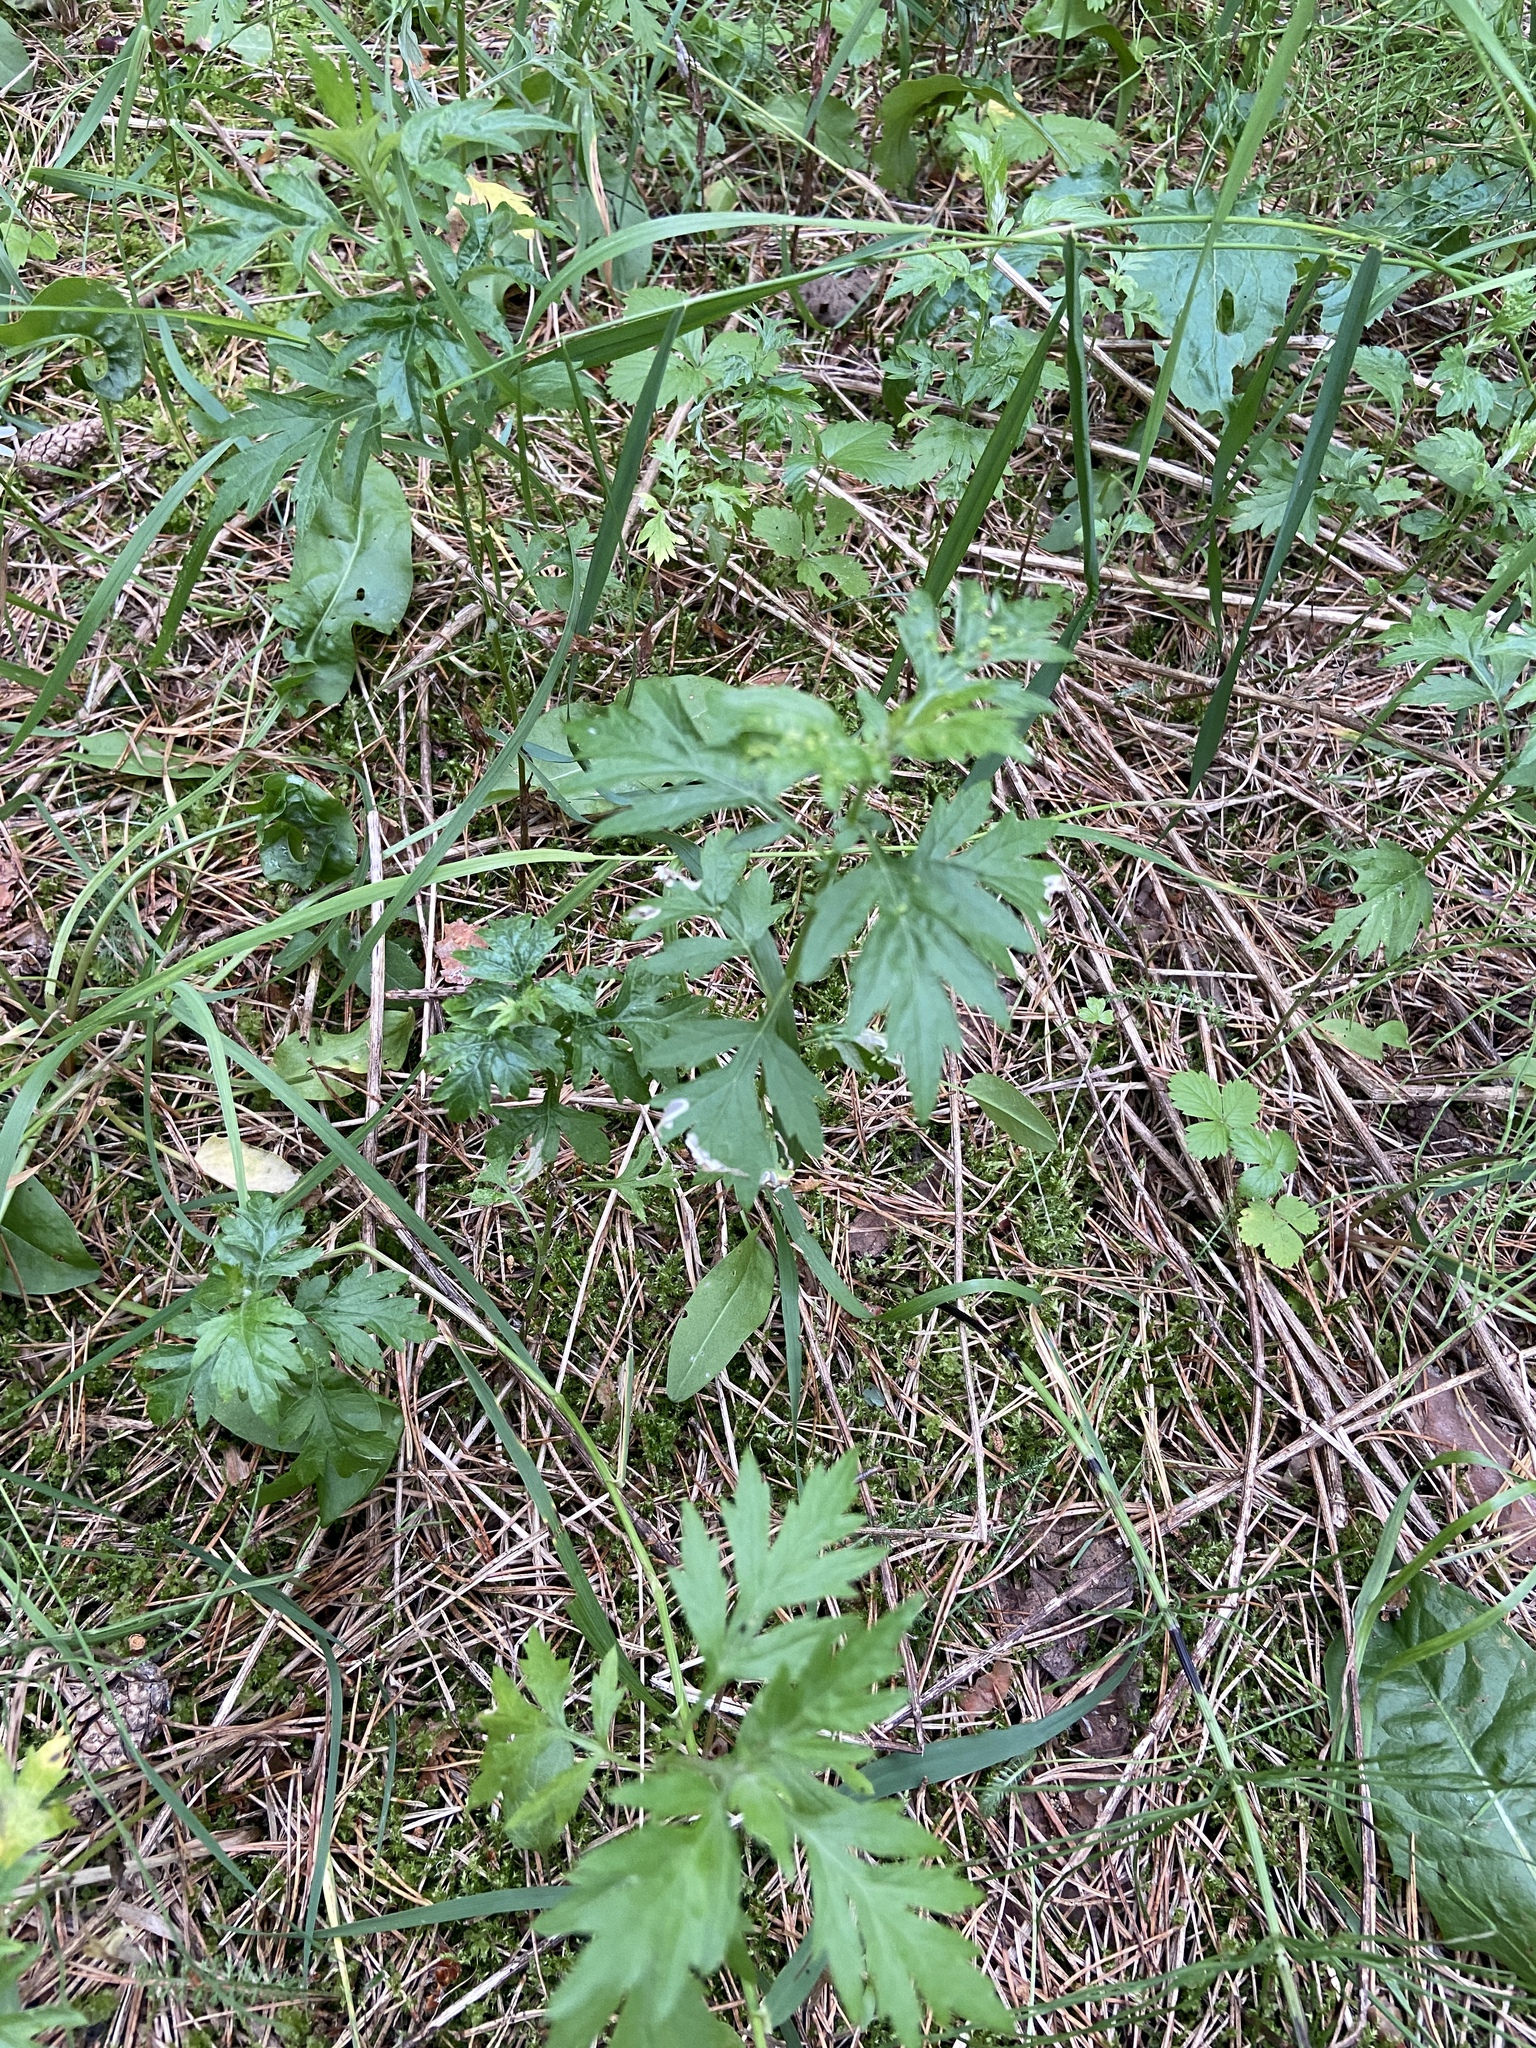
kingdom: Plantae
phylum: Tracheophyta
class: Magnoliopsida
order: Asterales
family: Asteraceae
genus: Artemisia
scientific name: Artemisia vulgaris
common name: Mugwort
